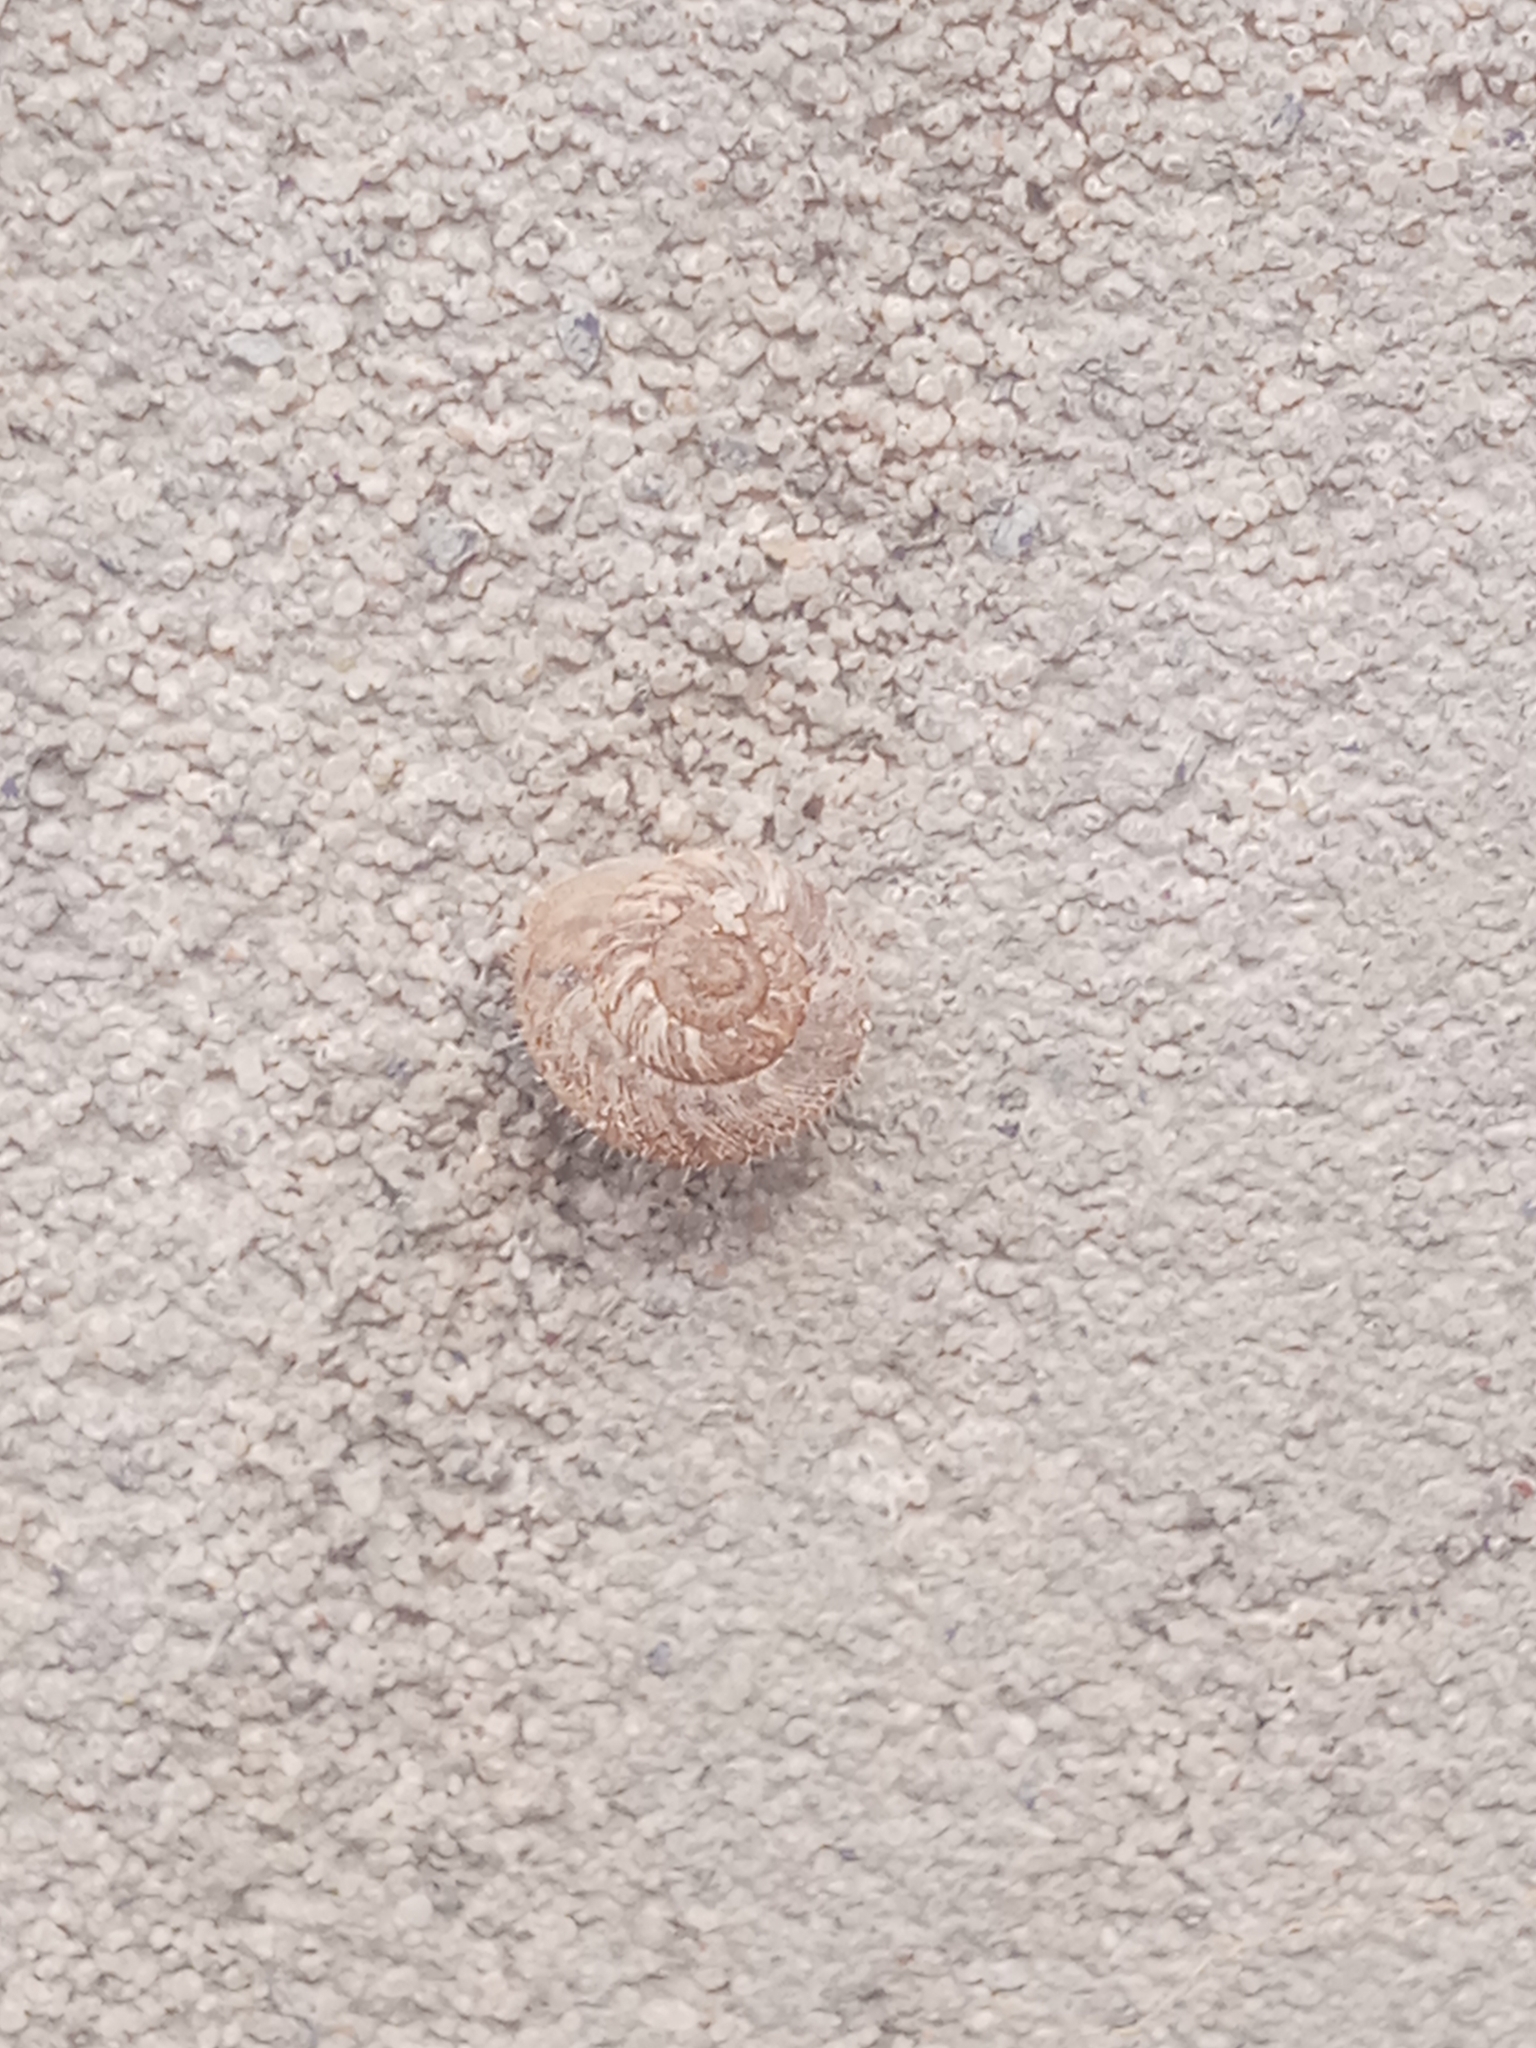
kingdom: Animalia
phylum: Mollusca
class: Gastropoda
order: Stylommatophora
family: Geomitridae
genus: Xerotricha
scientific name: Xerotricha conspurcata
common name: Snail
